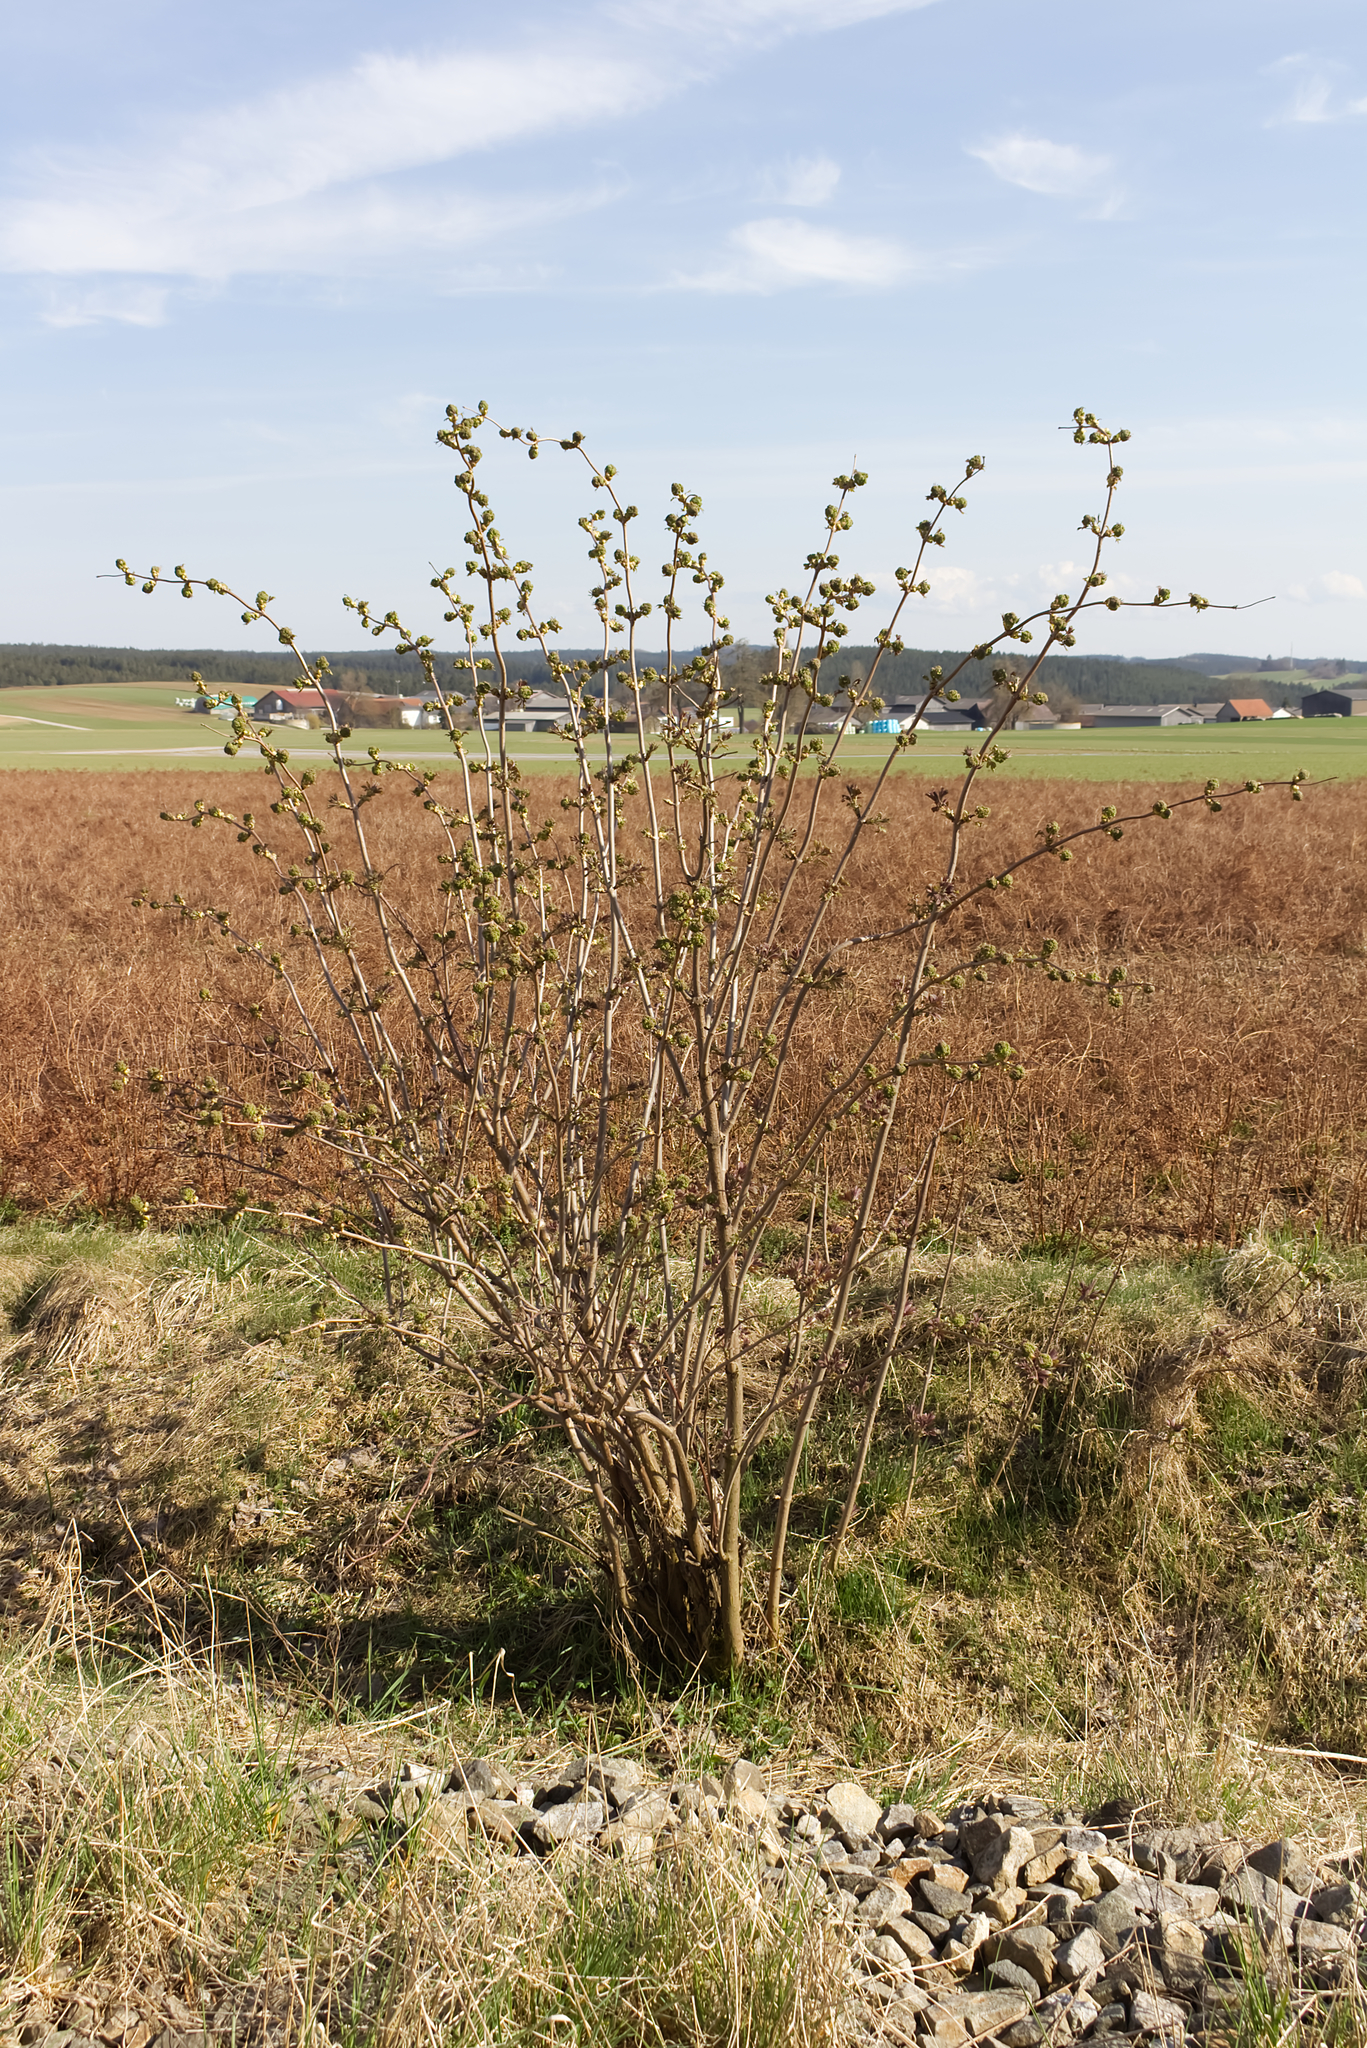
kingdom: Plantae
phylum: Tracheophyta
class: Magnoliopsida
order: Dipsacales
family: Viburnaceae
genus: Sambucus
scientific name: Sambucus racemosa
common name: Red-berried elder
